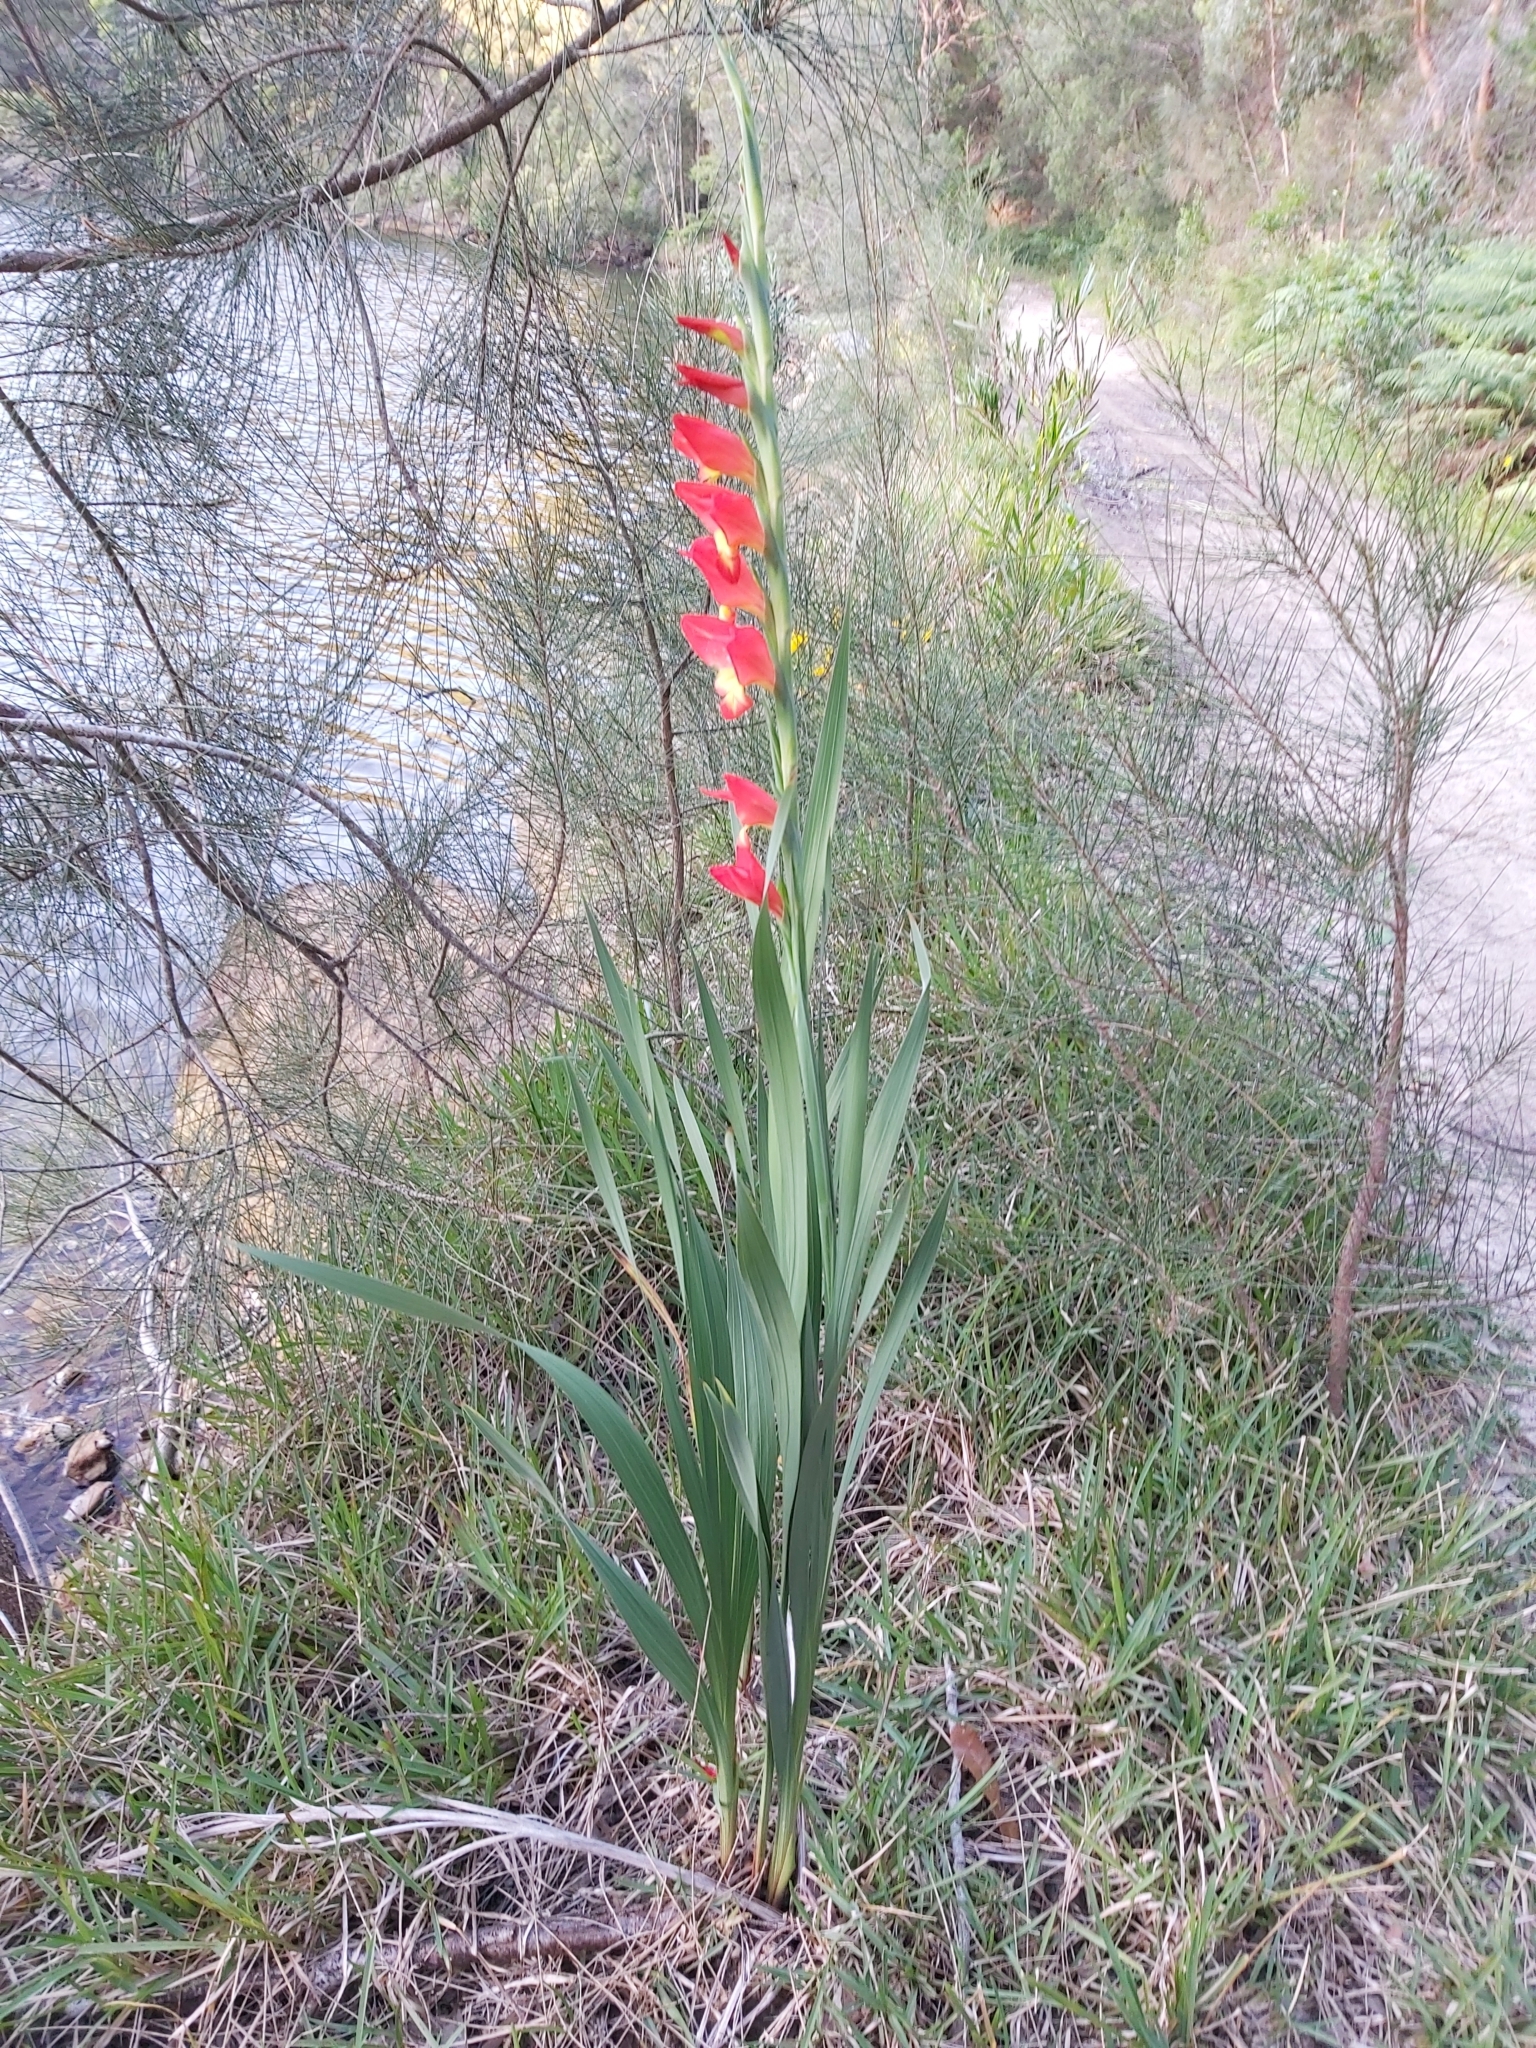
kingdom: Plantae
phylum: Tracheophyta
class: Liliopsida
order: Asparagales
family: Iridaceae
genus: Gladiolus
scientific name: Gladiolus dalenii
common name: Cornflag
